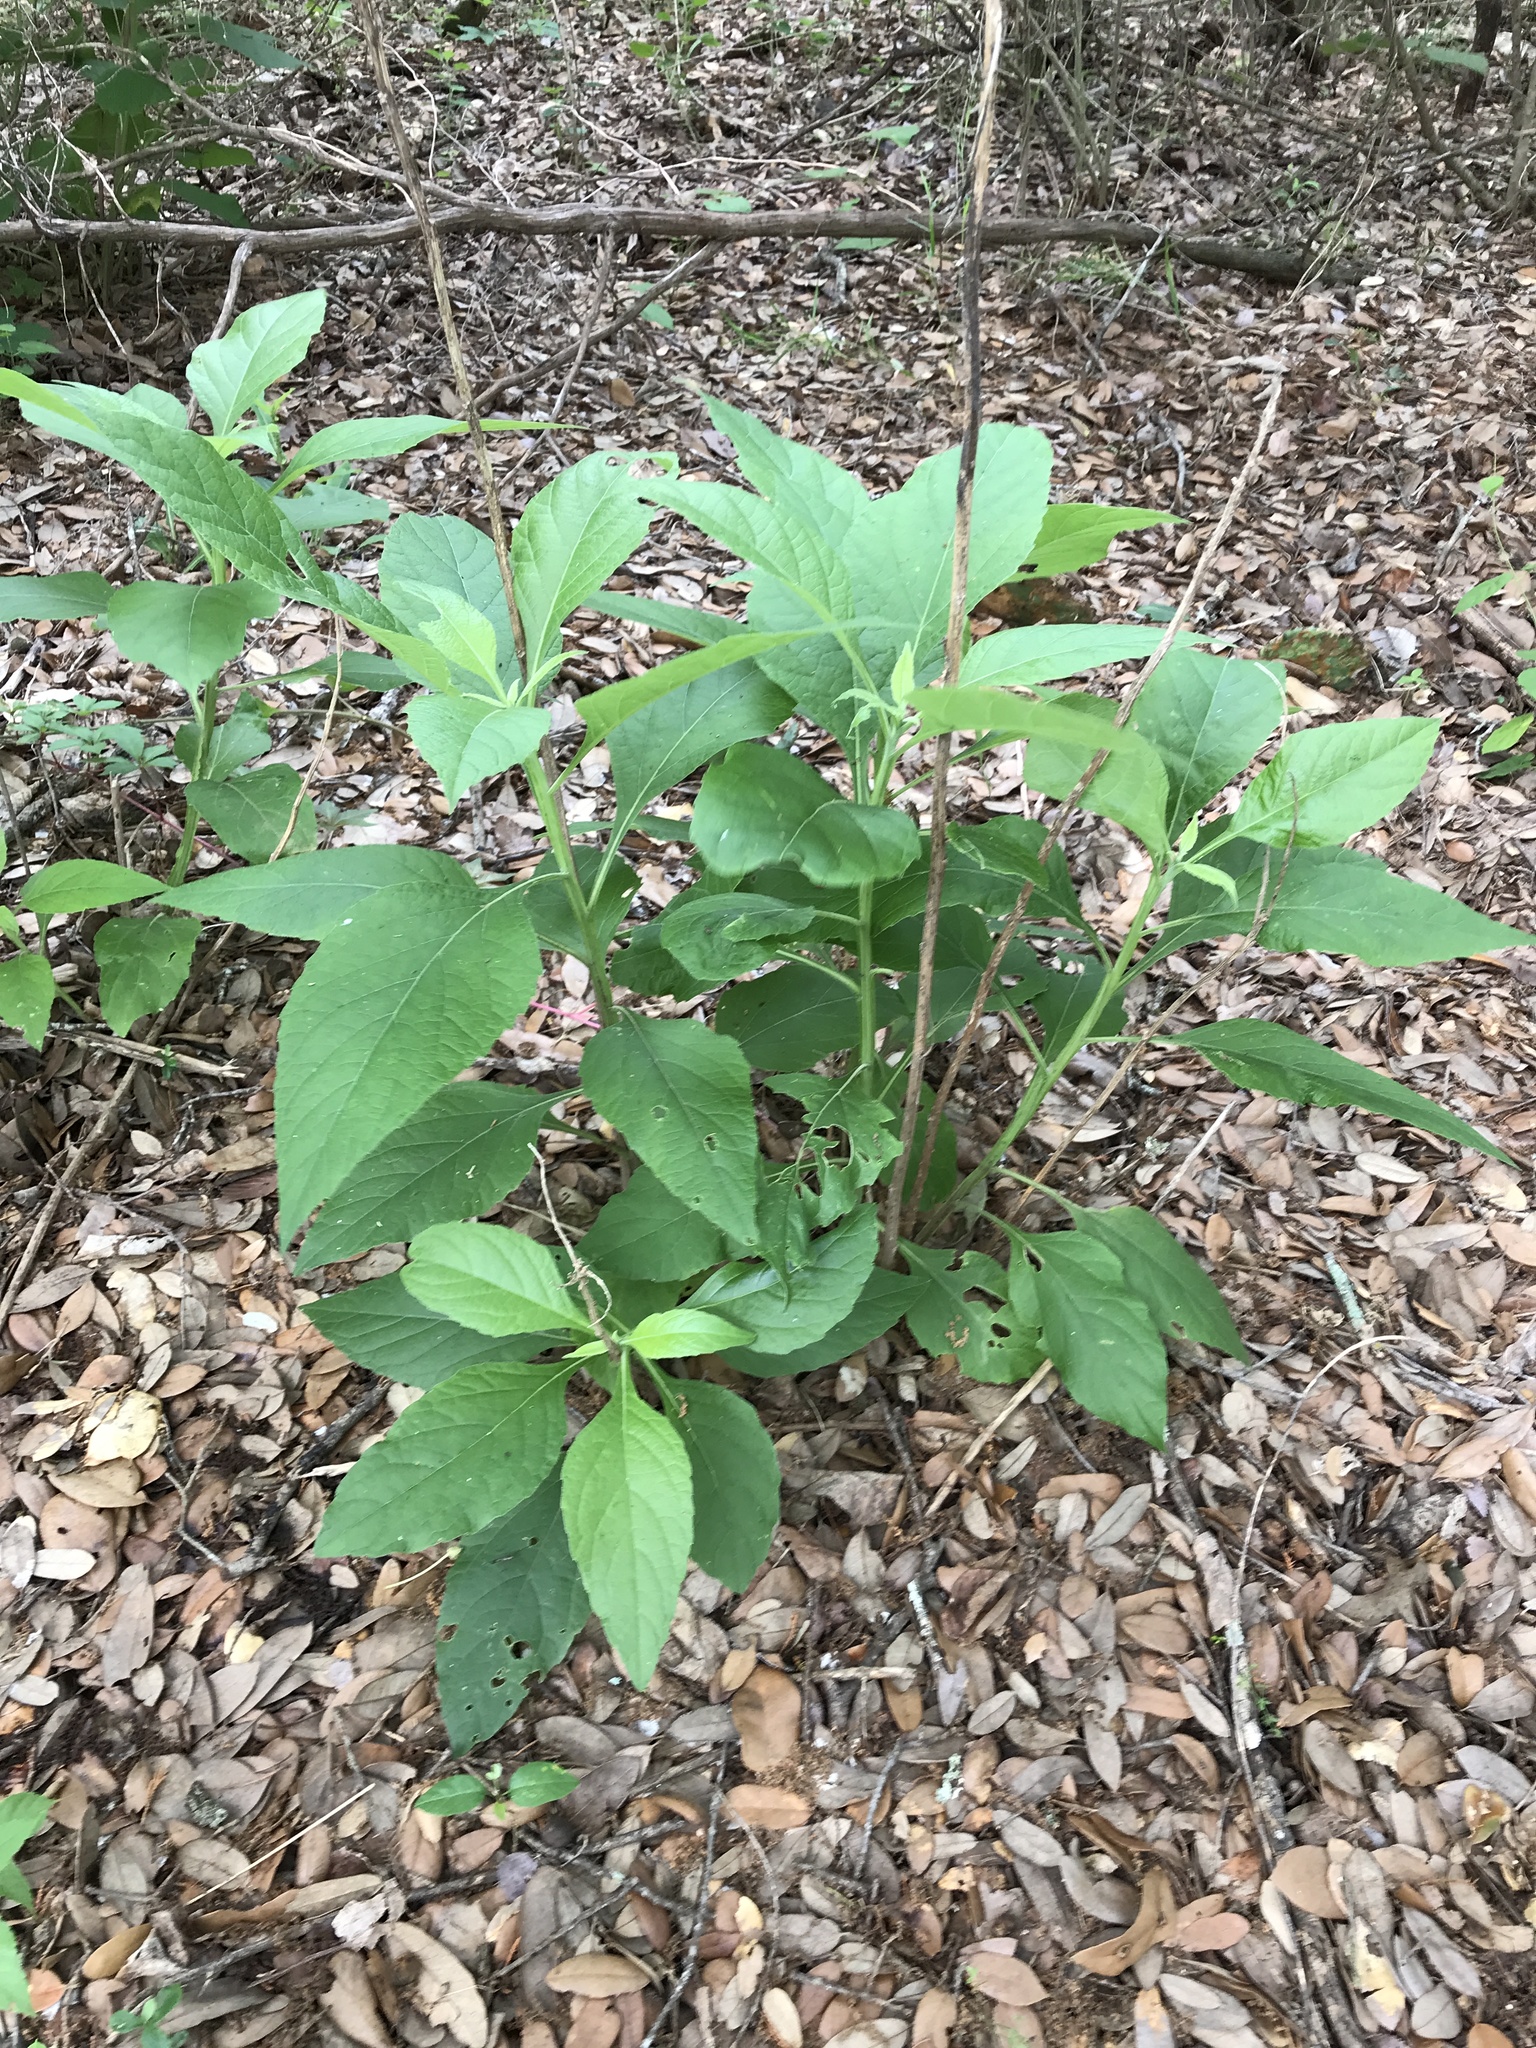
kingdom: Plantae
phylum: Tracheophyta
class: Magnoliopsida
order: Asterales
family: Asteraceae
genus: Verbesina
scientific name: Verbesina virginica
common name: Frostweed
